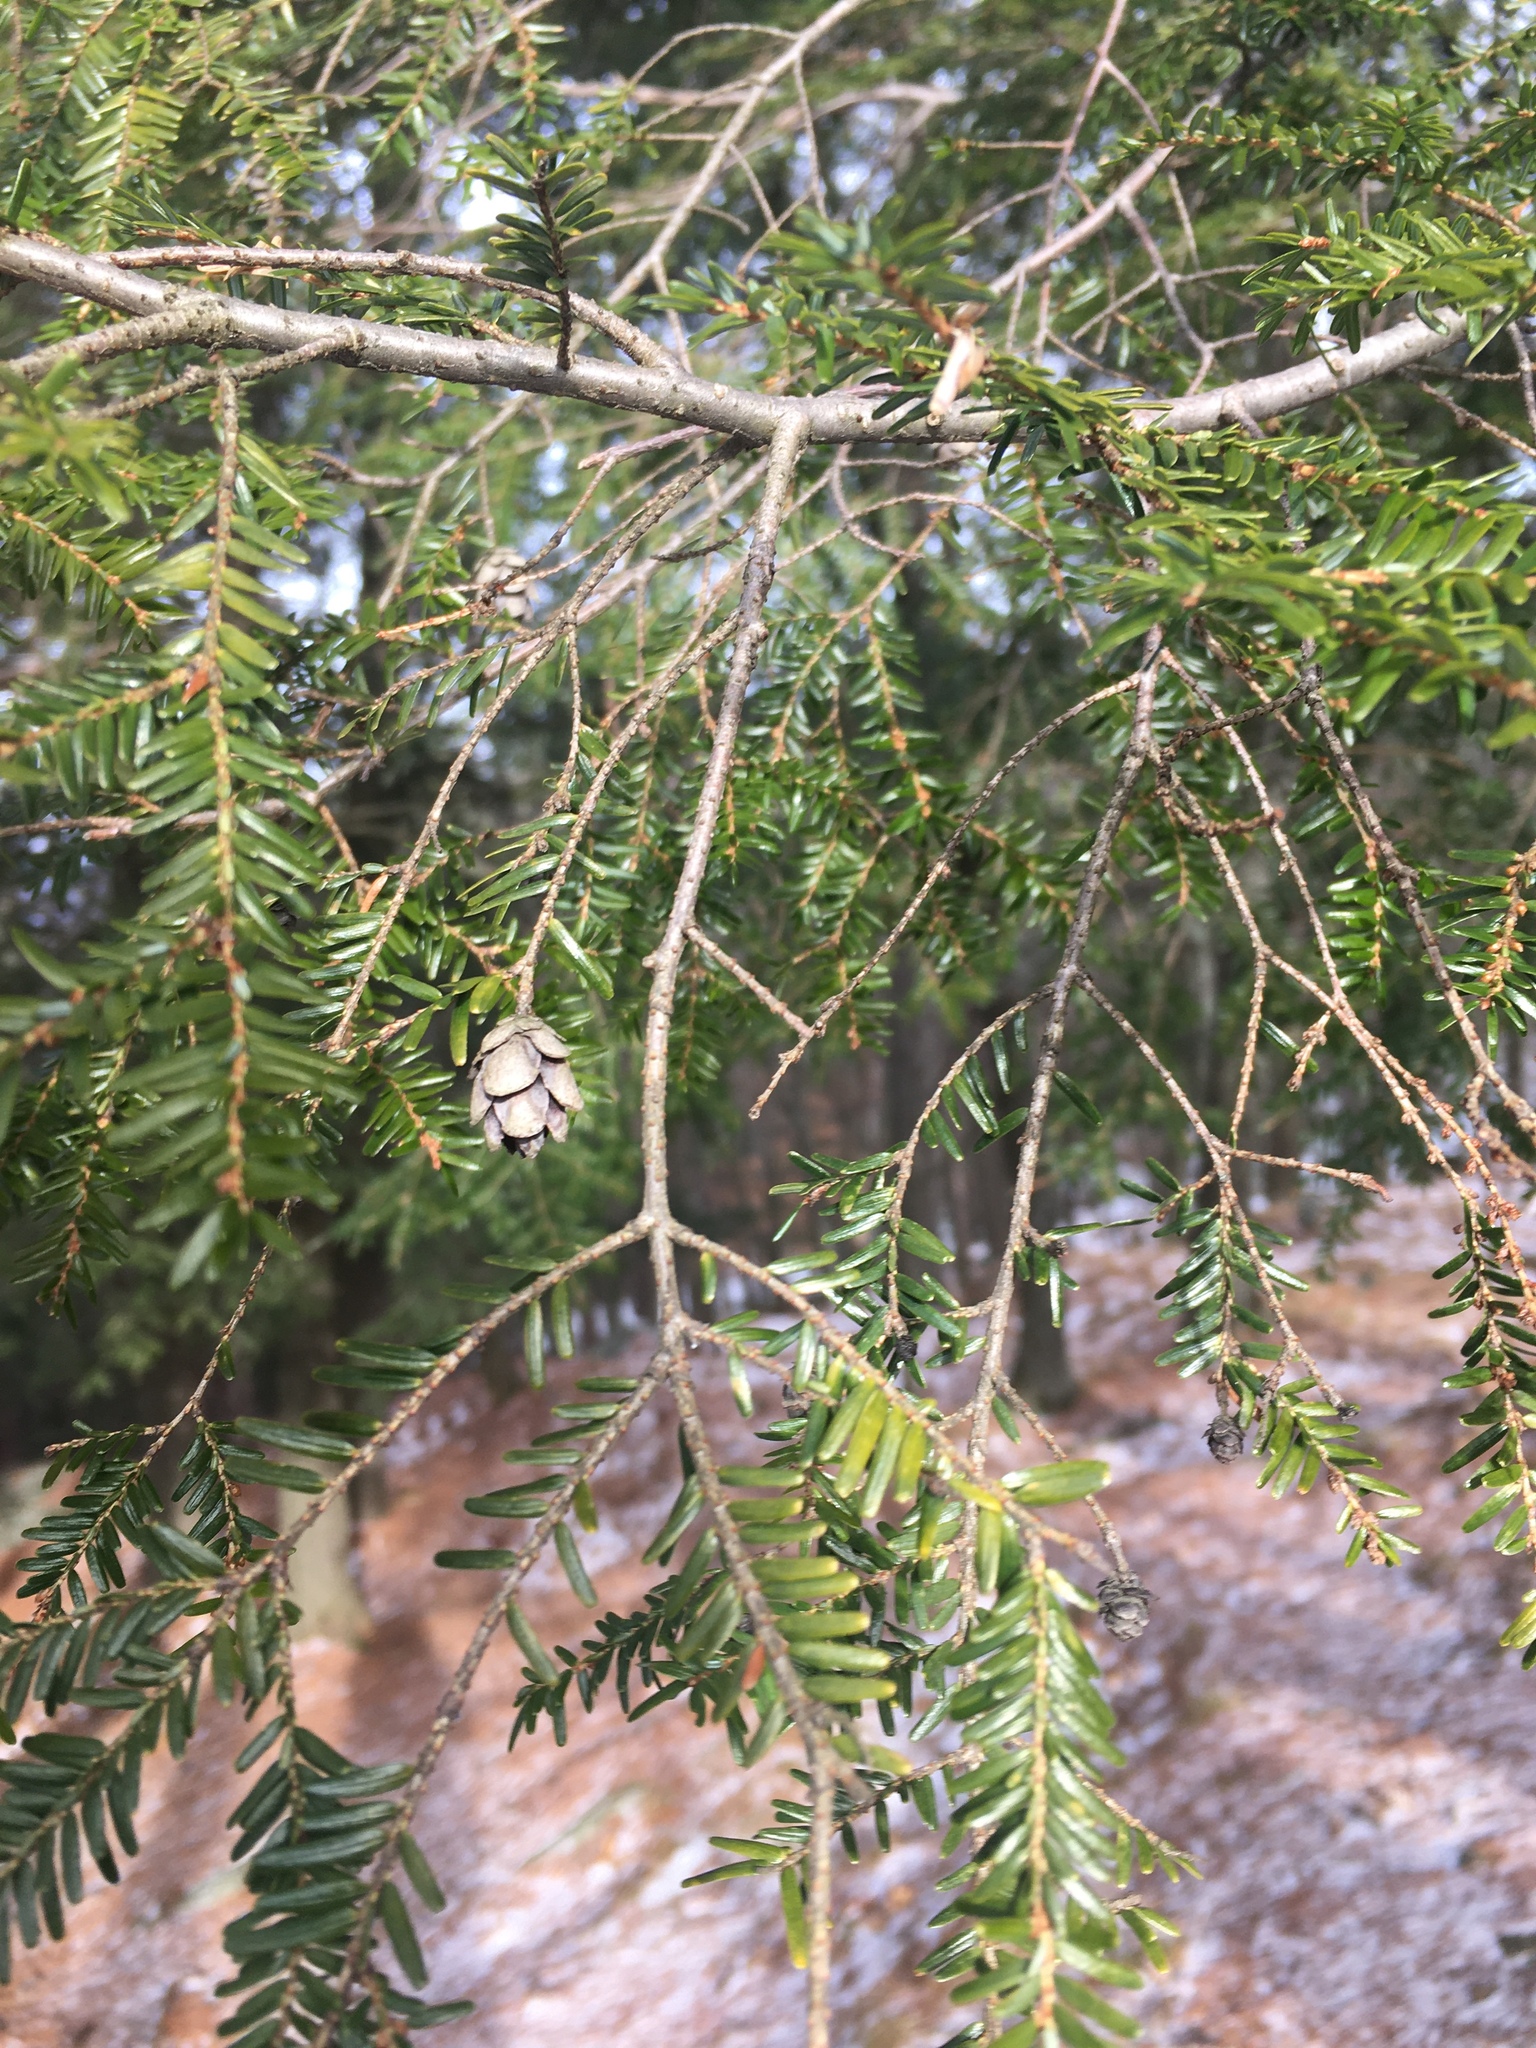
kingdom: Plantae
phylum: Tracheophyta
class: Pinopsida
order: Pinales
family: Pinaceae
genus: Tsuga
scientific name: Tsuga canadensis
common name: Eastern hemlock
